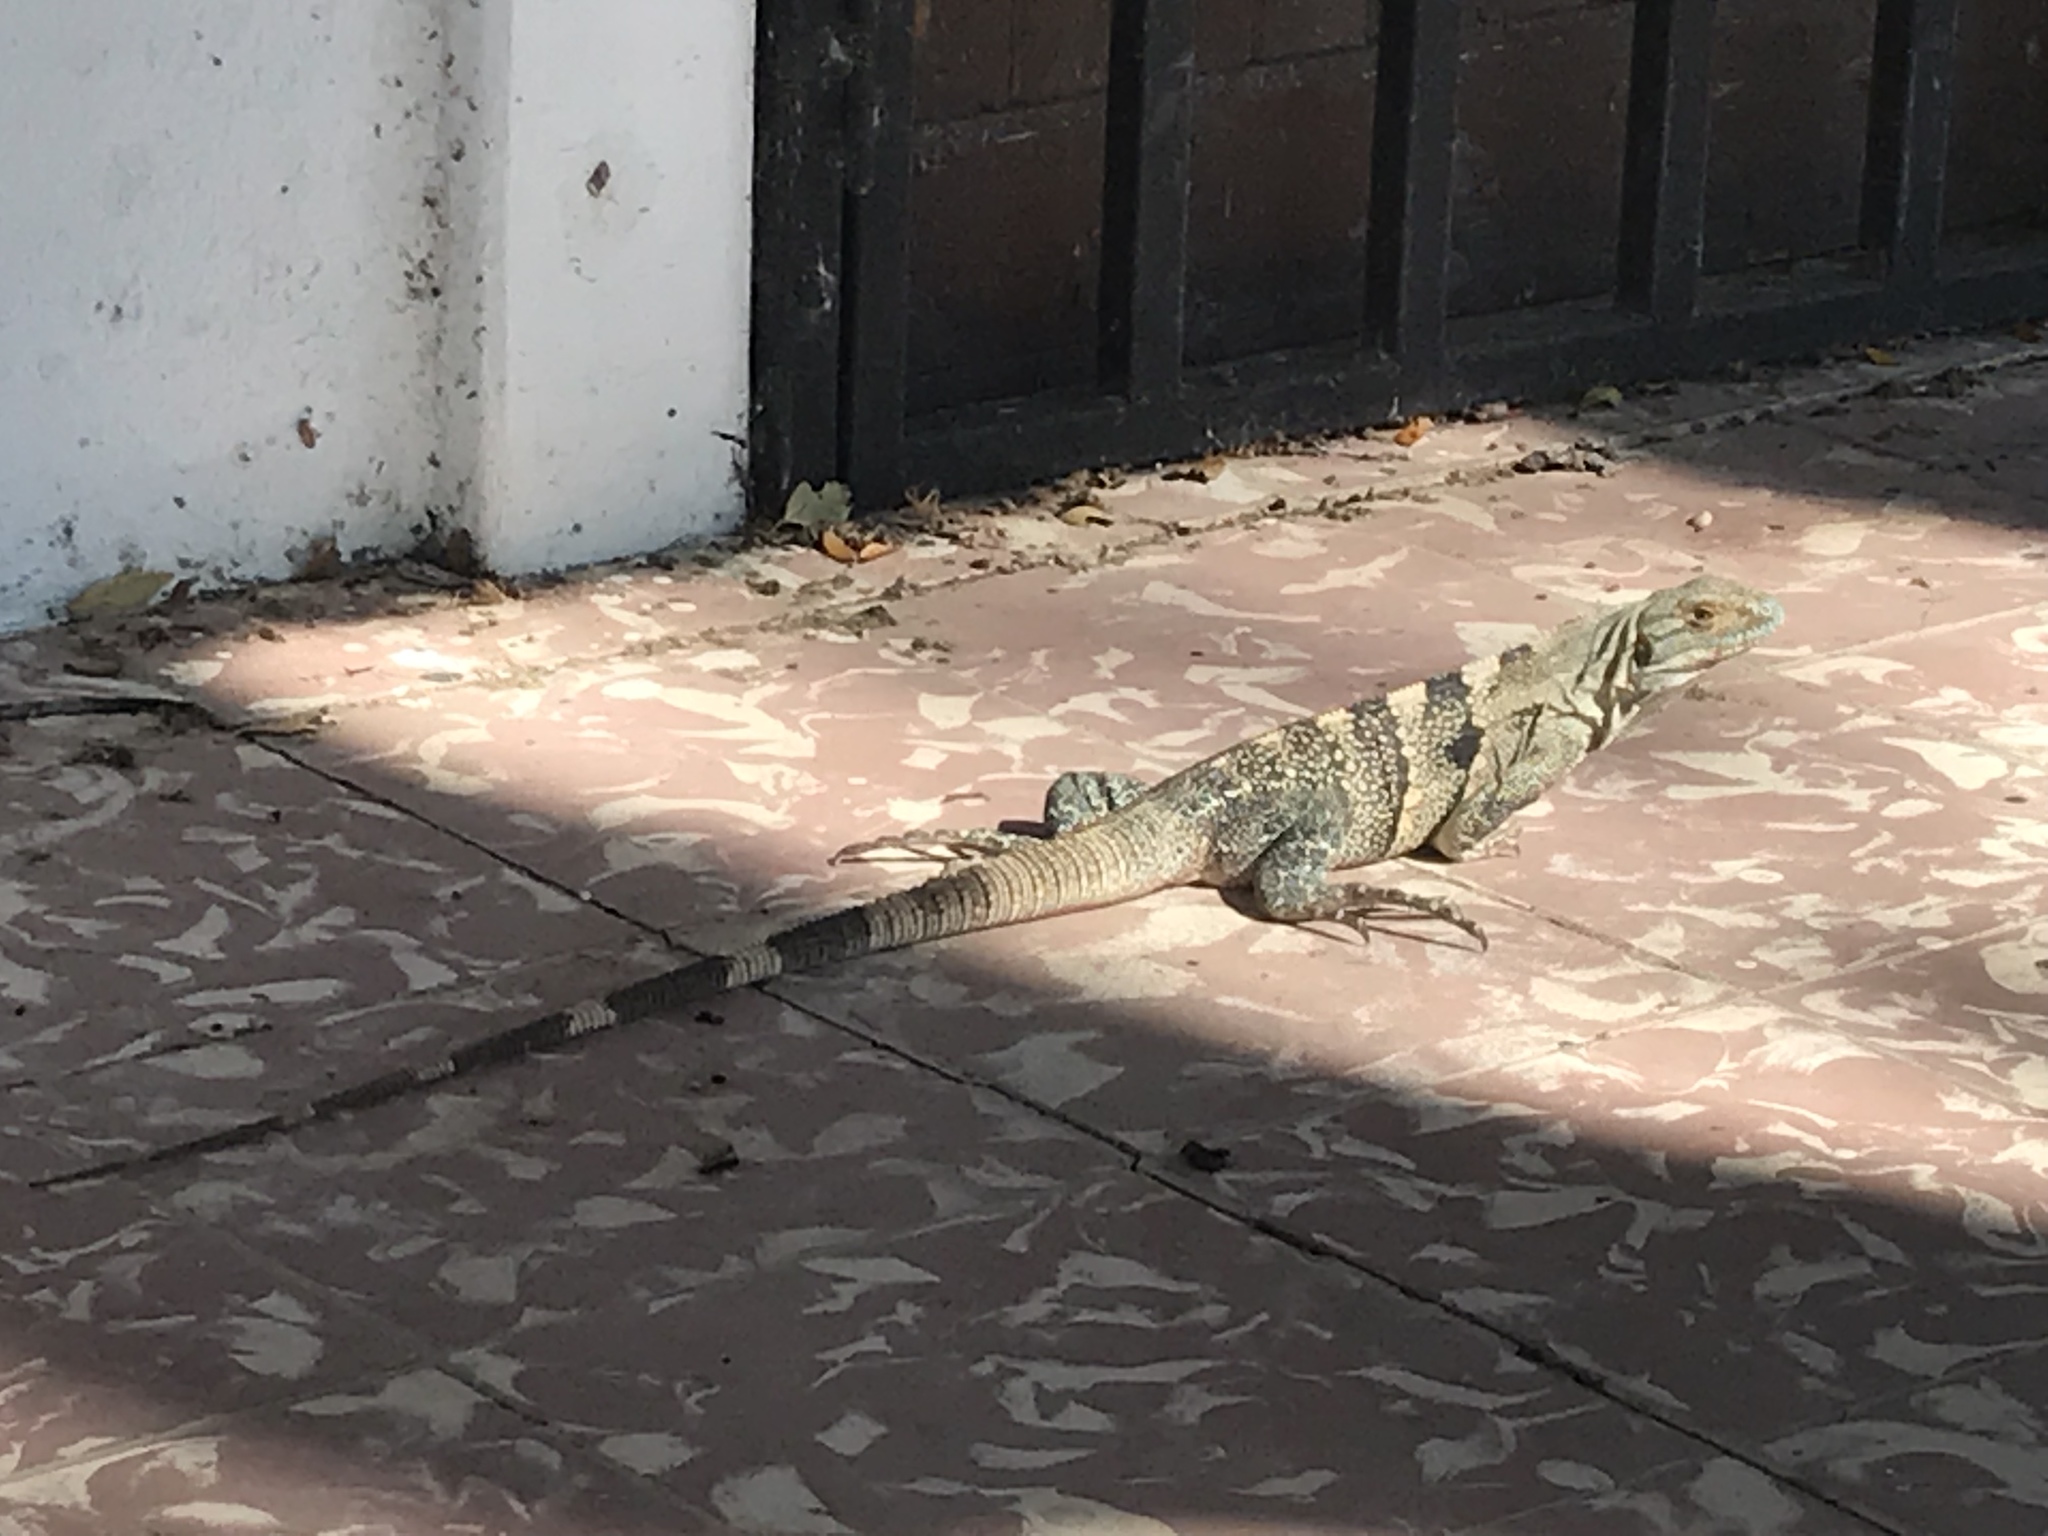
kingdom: Animalia
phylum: Chordata
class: Squamata
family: Iguanidae
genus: Ctenosaura
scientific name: Ctenosaura similis
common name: Black spiny-tailed iguana
